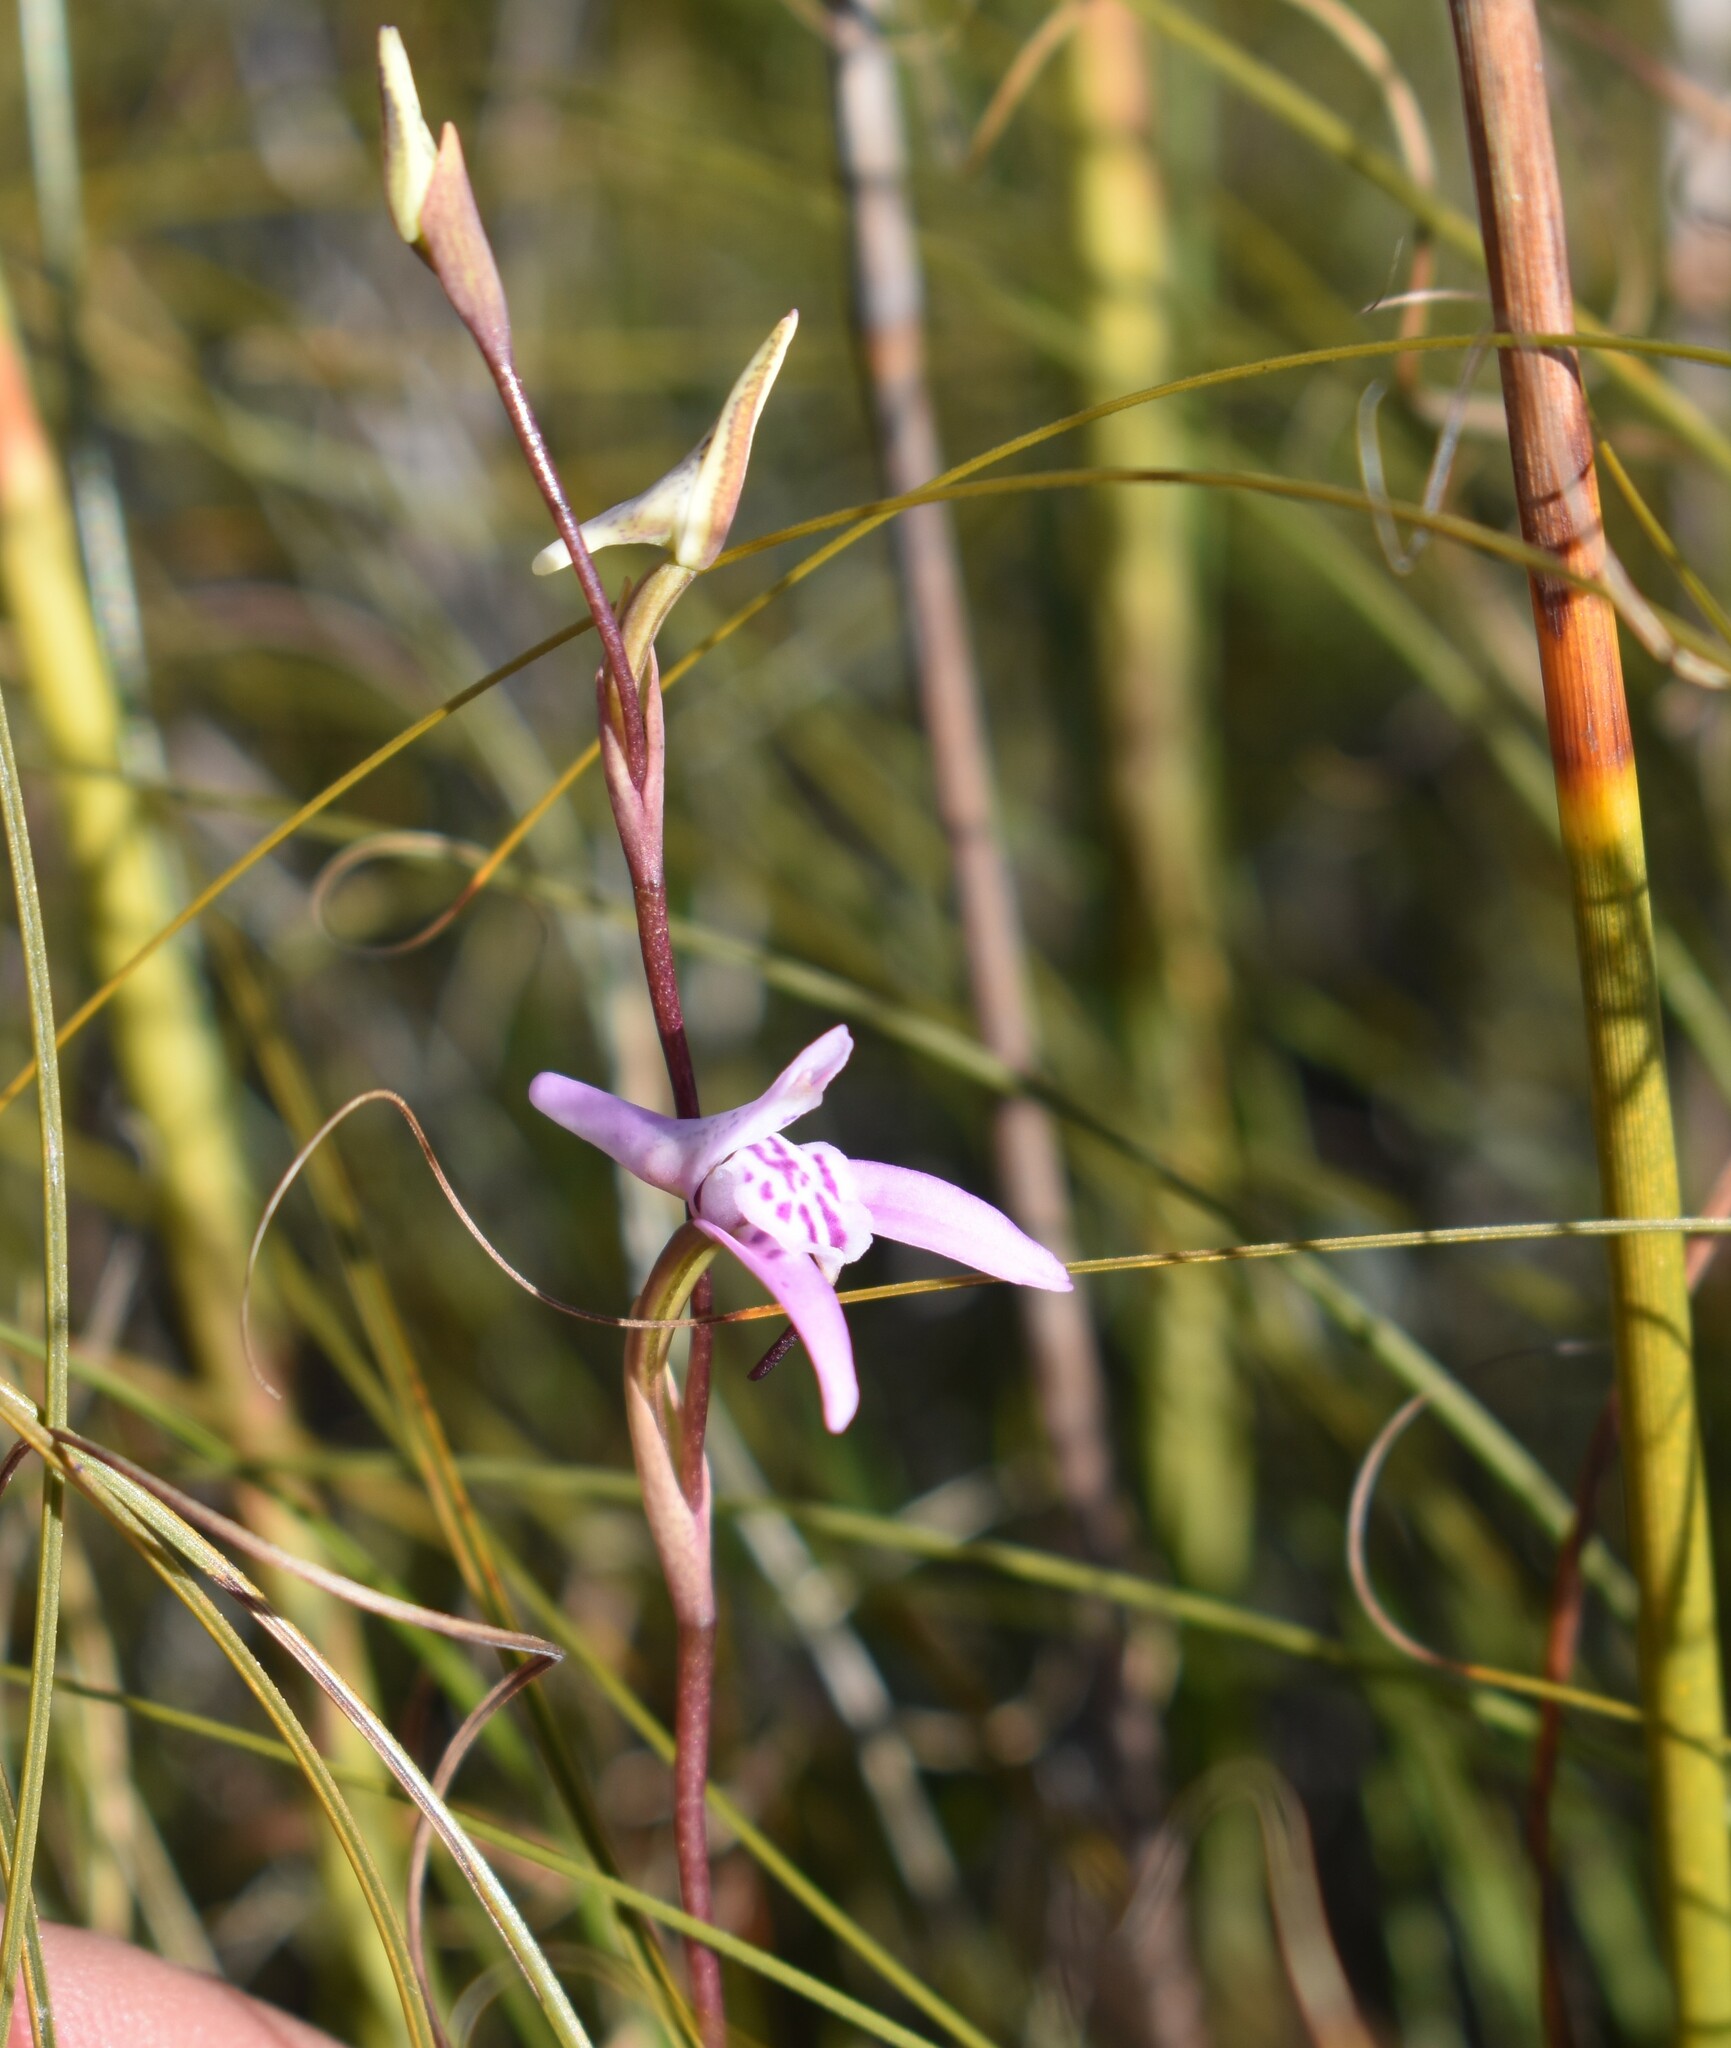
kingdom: Plantae
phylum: Tracheophyta
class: Liliopsida
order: Asparagales
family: Orchidaceae
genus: Disa
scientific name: Disa inflexa
